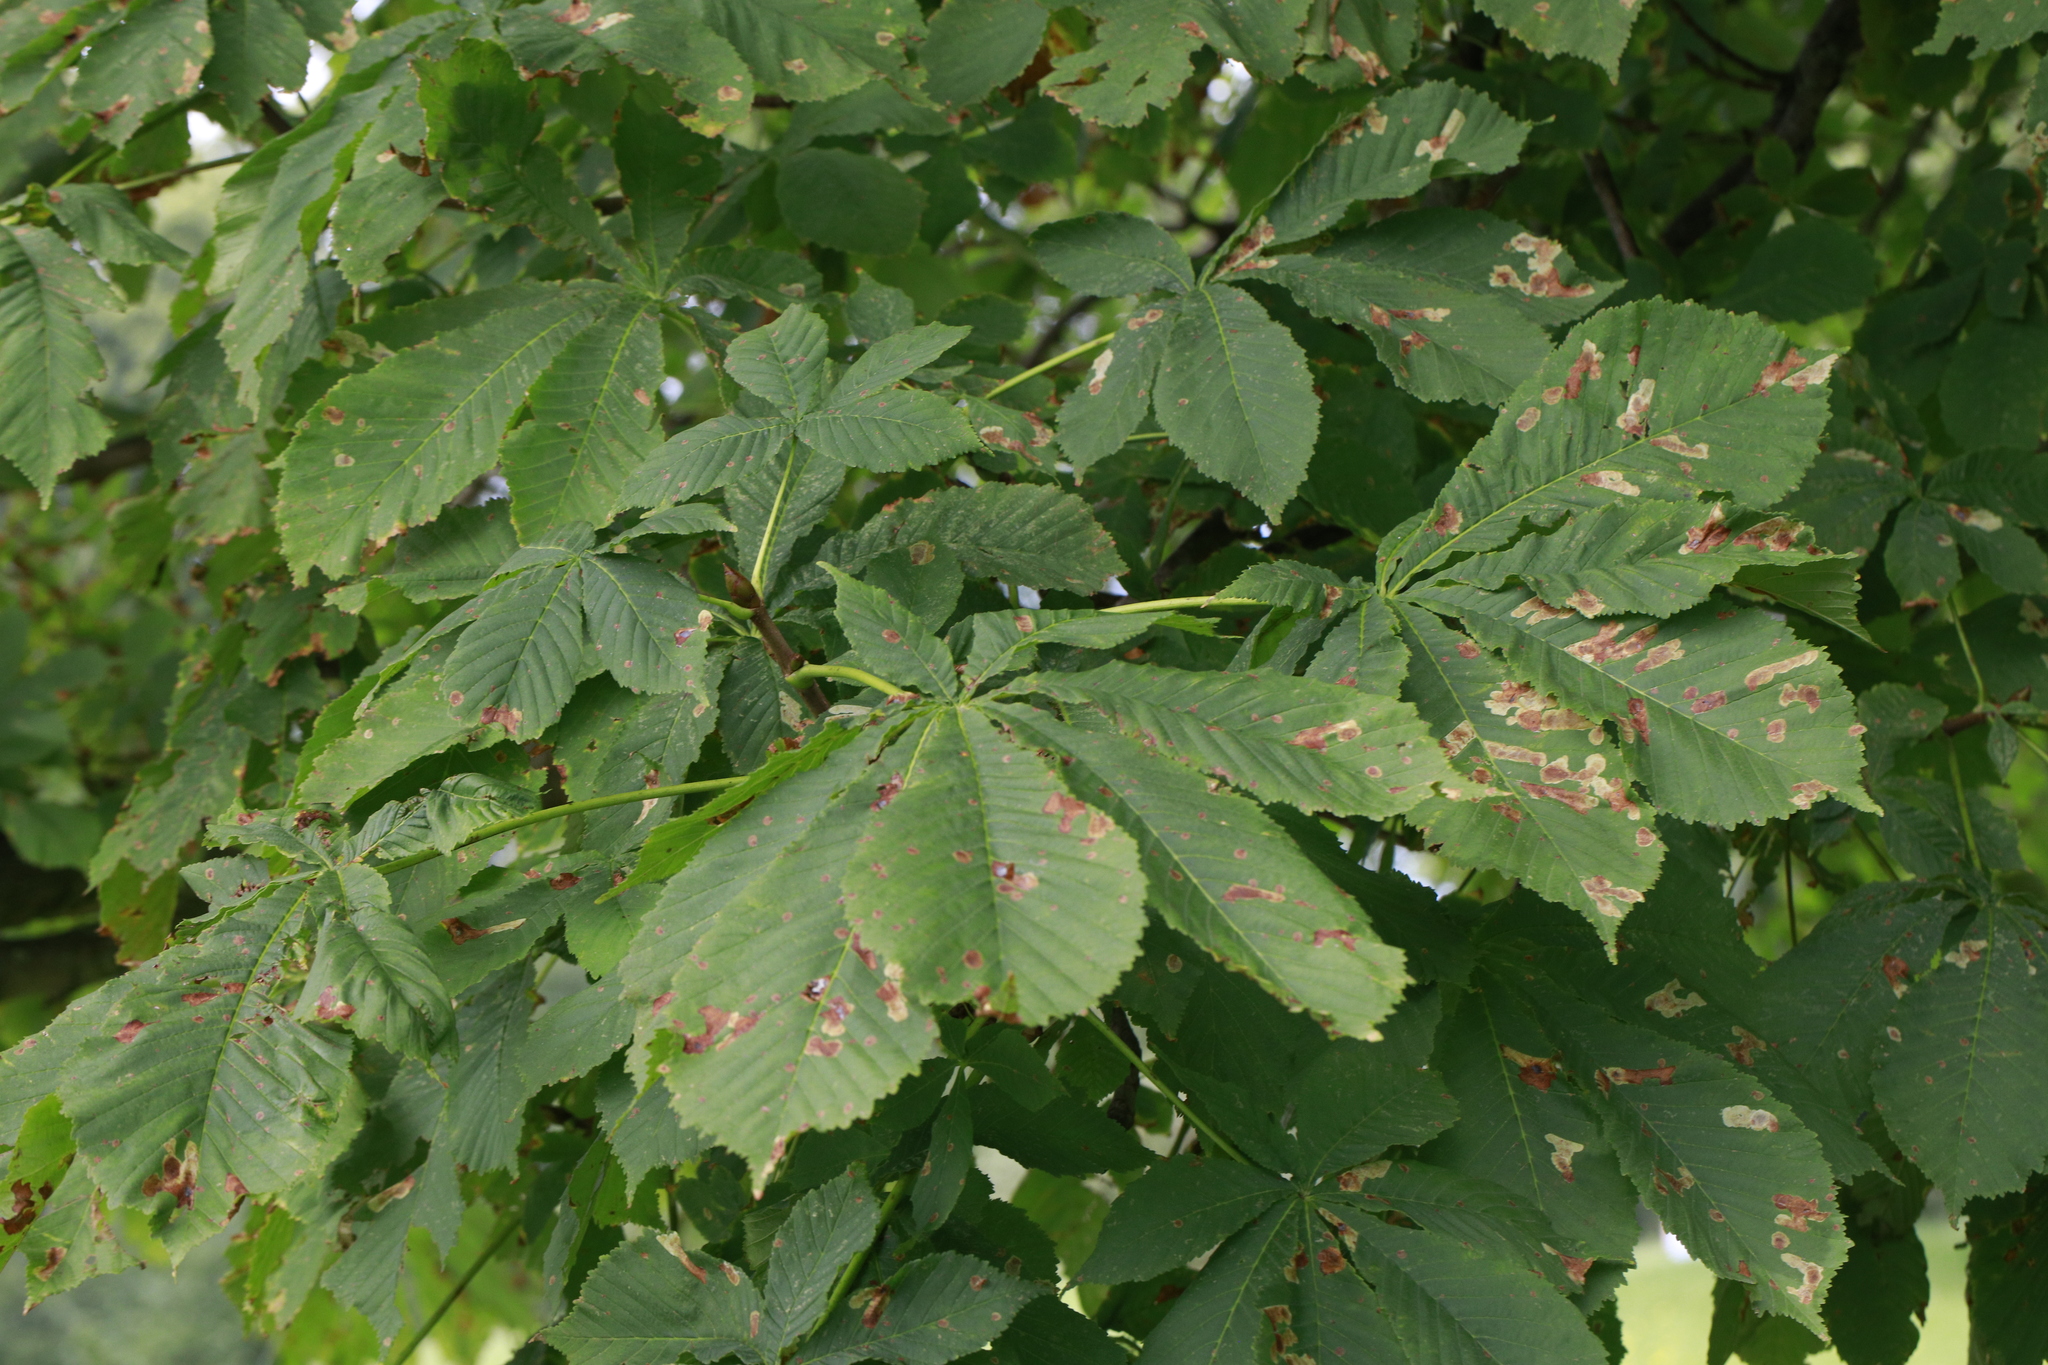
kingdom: Animalia
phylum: Arthropoda
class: Insecta
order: Lepidoptera
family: Gracillariidae
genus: Cameraria
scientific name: Cameraria ohridella
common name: Horse-chestnut leaf-miner
